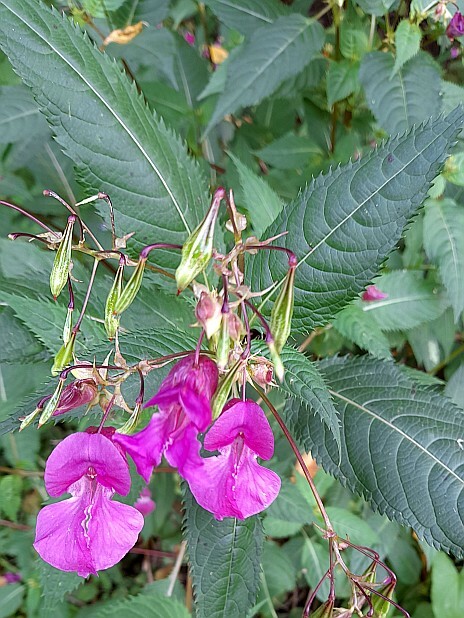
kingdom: Plantae
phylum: Tracheophyta
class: Magnoliopsida
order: Ericales
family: Balsaminaceae
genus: Impatiens
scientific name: Impatiens glandulifera
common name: Himalayan balsam
